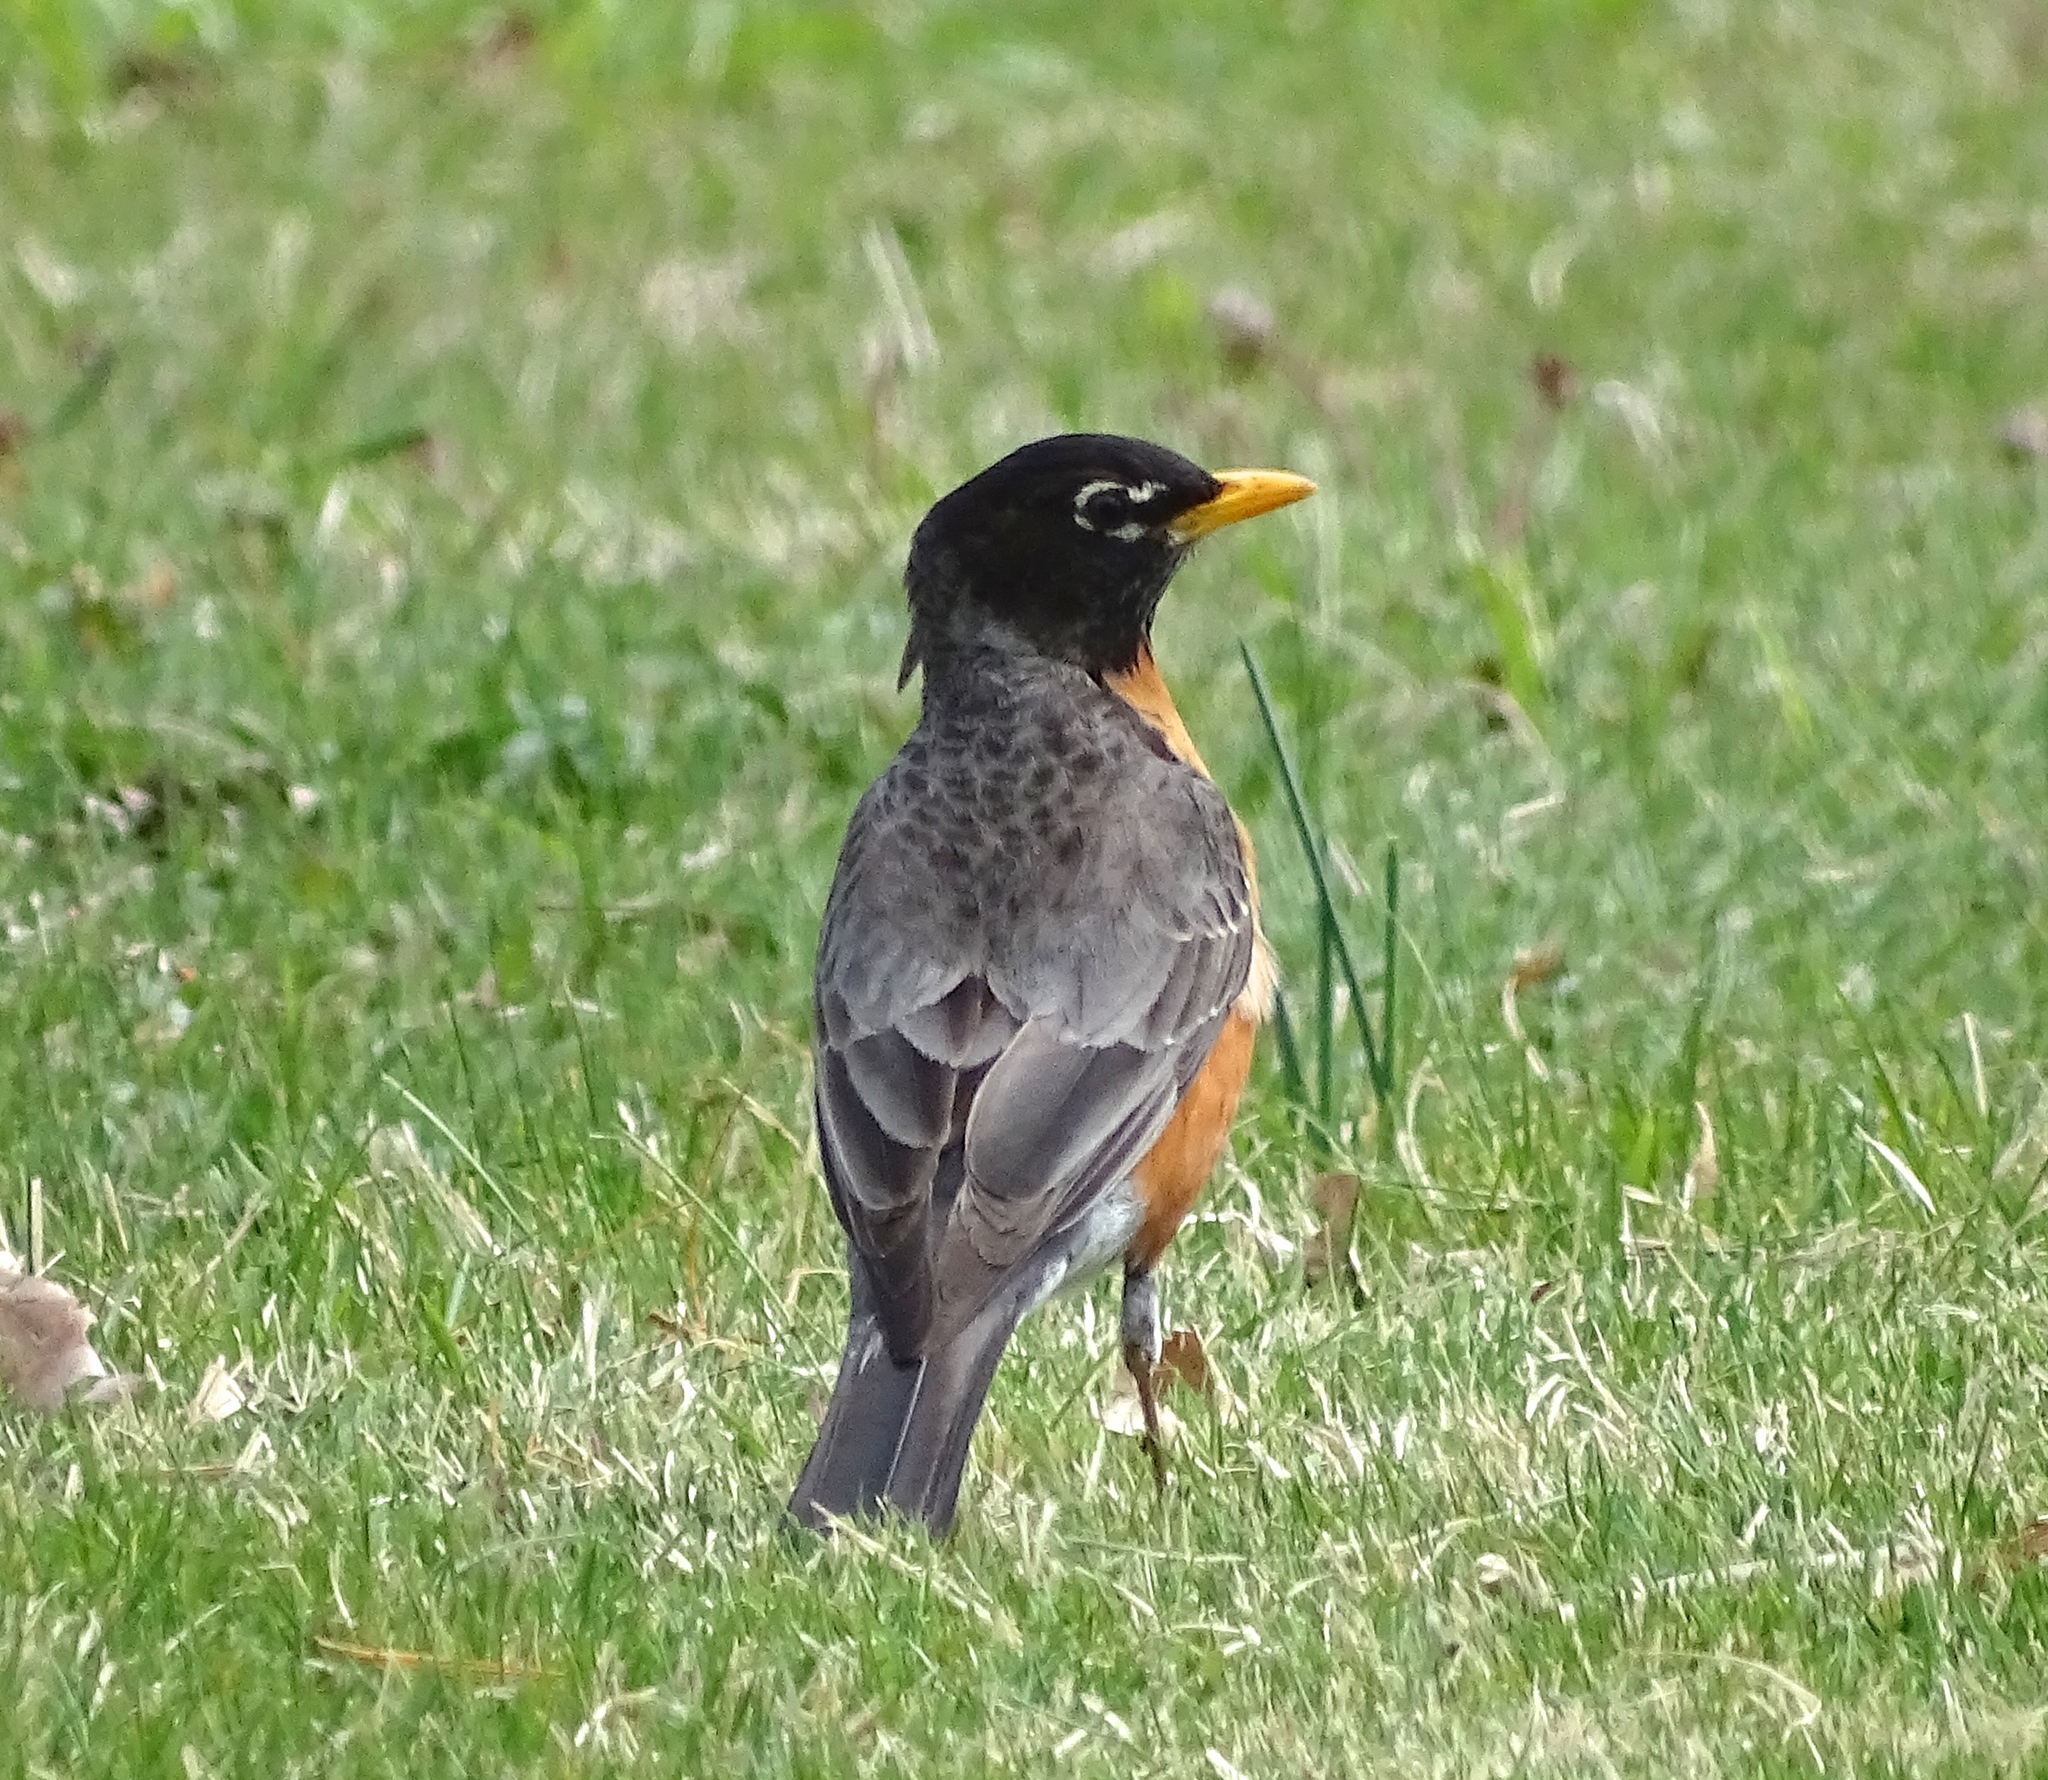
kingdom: Animalia
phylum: Chordata
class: Aves
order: Passeriformes
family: Turdidae
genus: Turdus
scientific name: Turdus migratorius
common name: American robin
